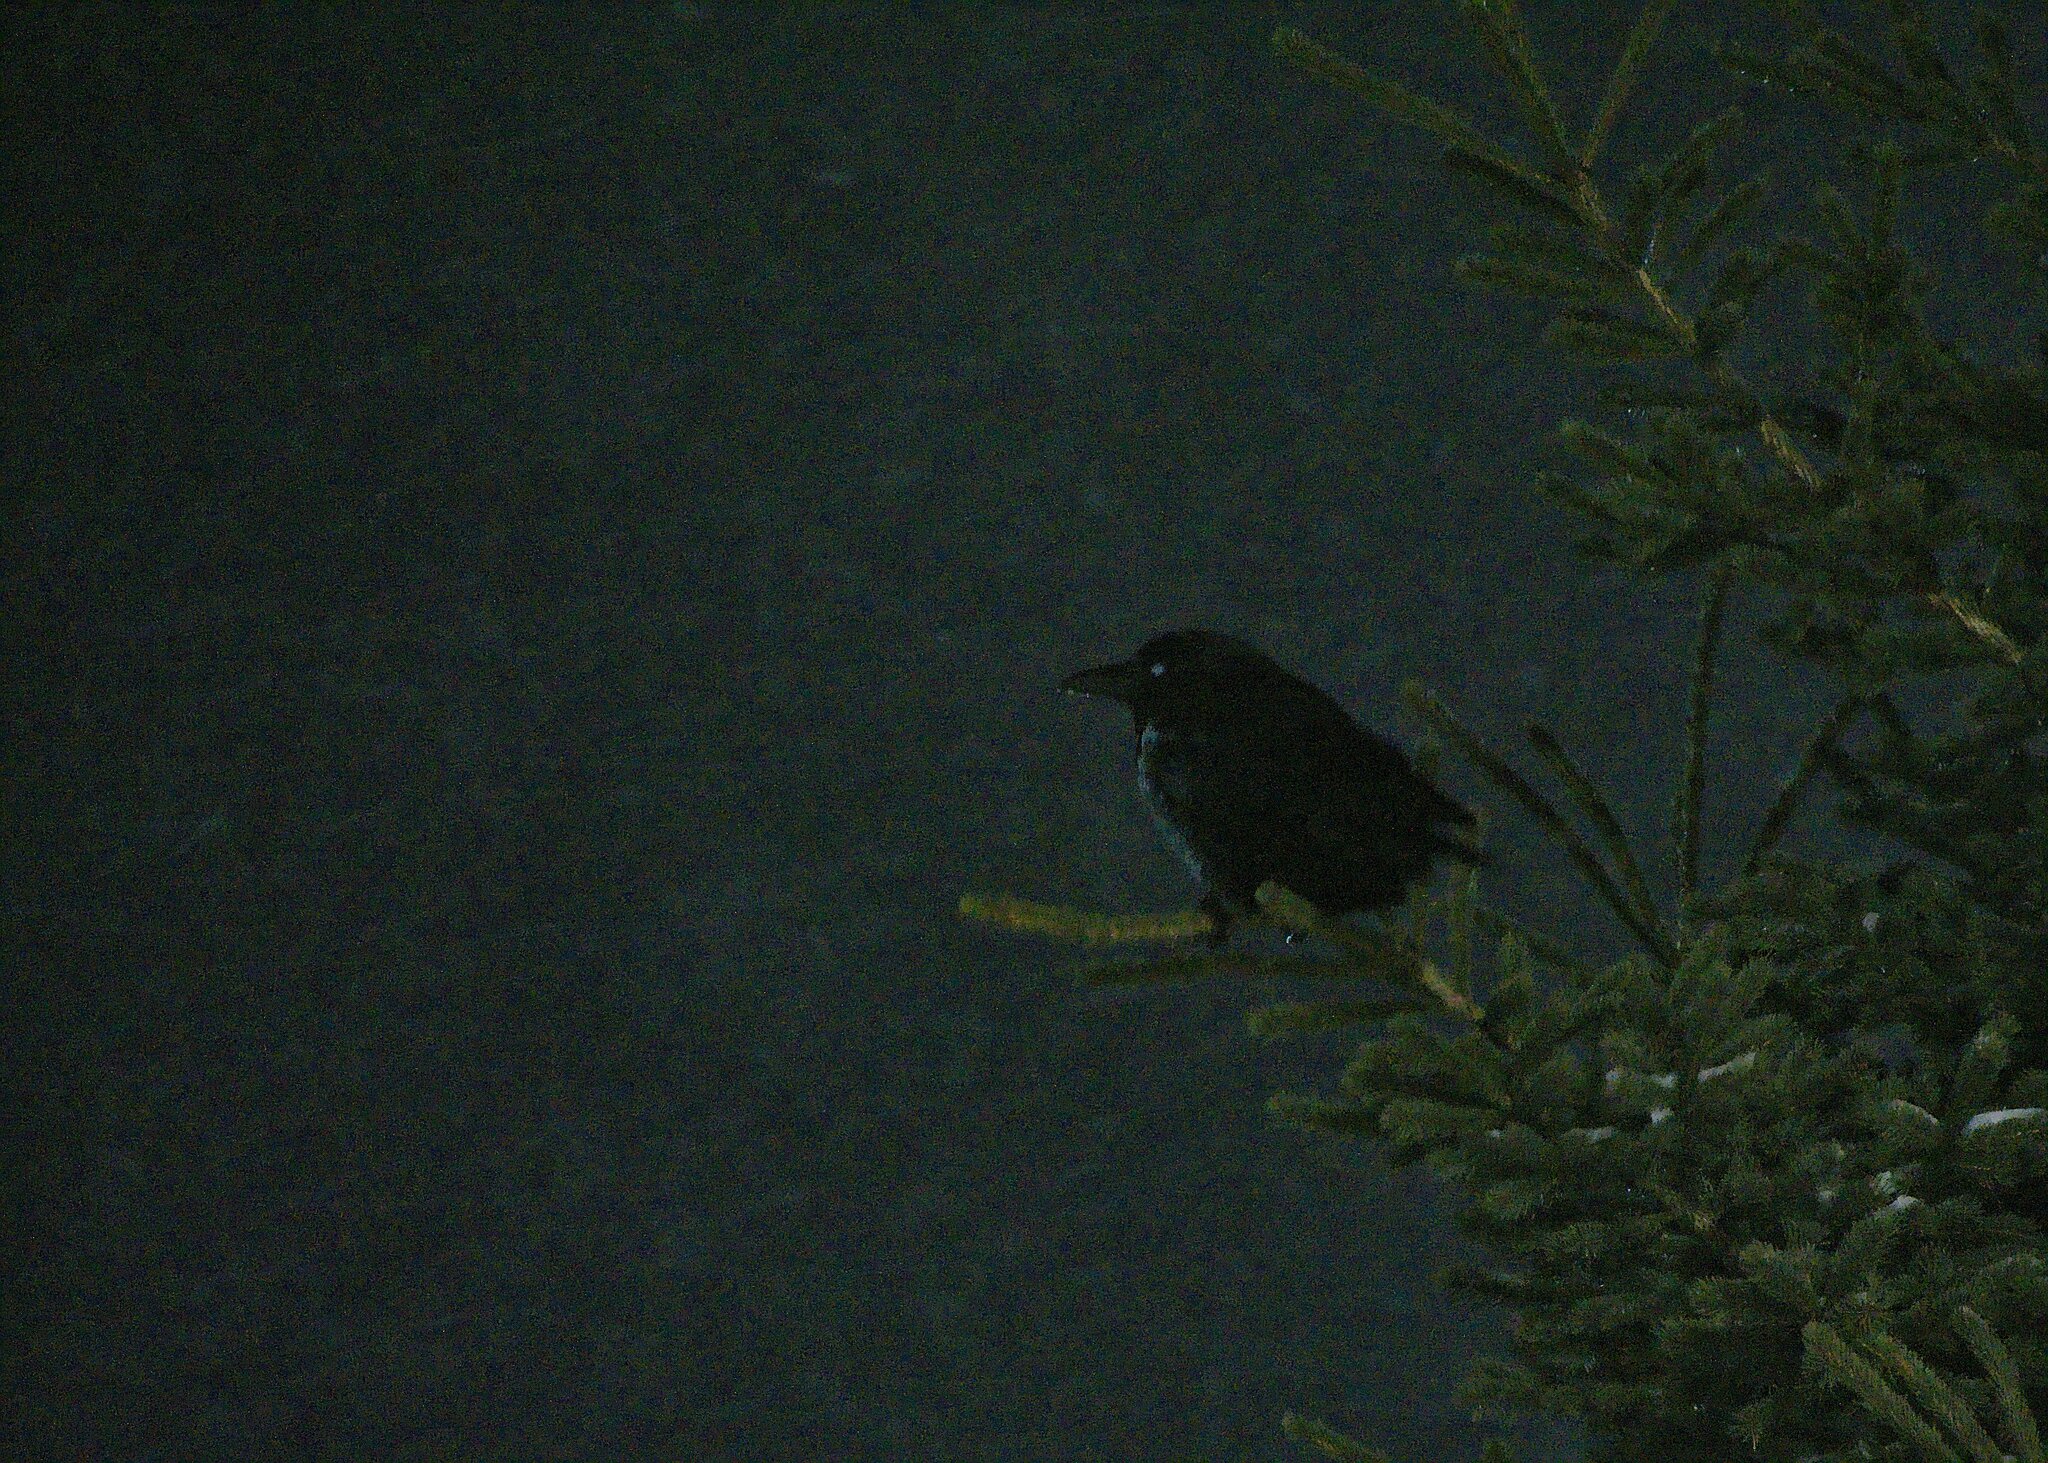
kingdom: Animalia
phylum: Chordata
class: Aves
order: Passeriformes
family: Corvidae
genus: Corvus
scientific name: Corvus brachyrhynchos
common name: American crow
